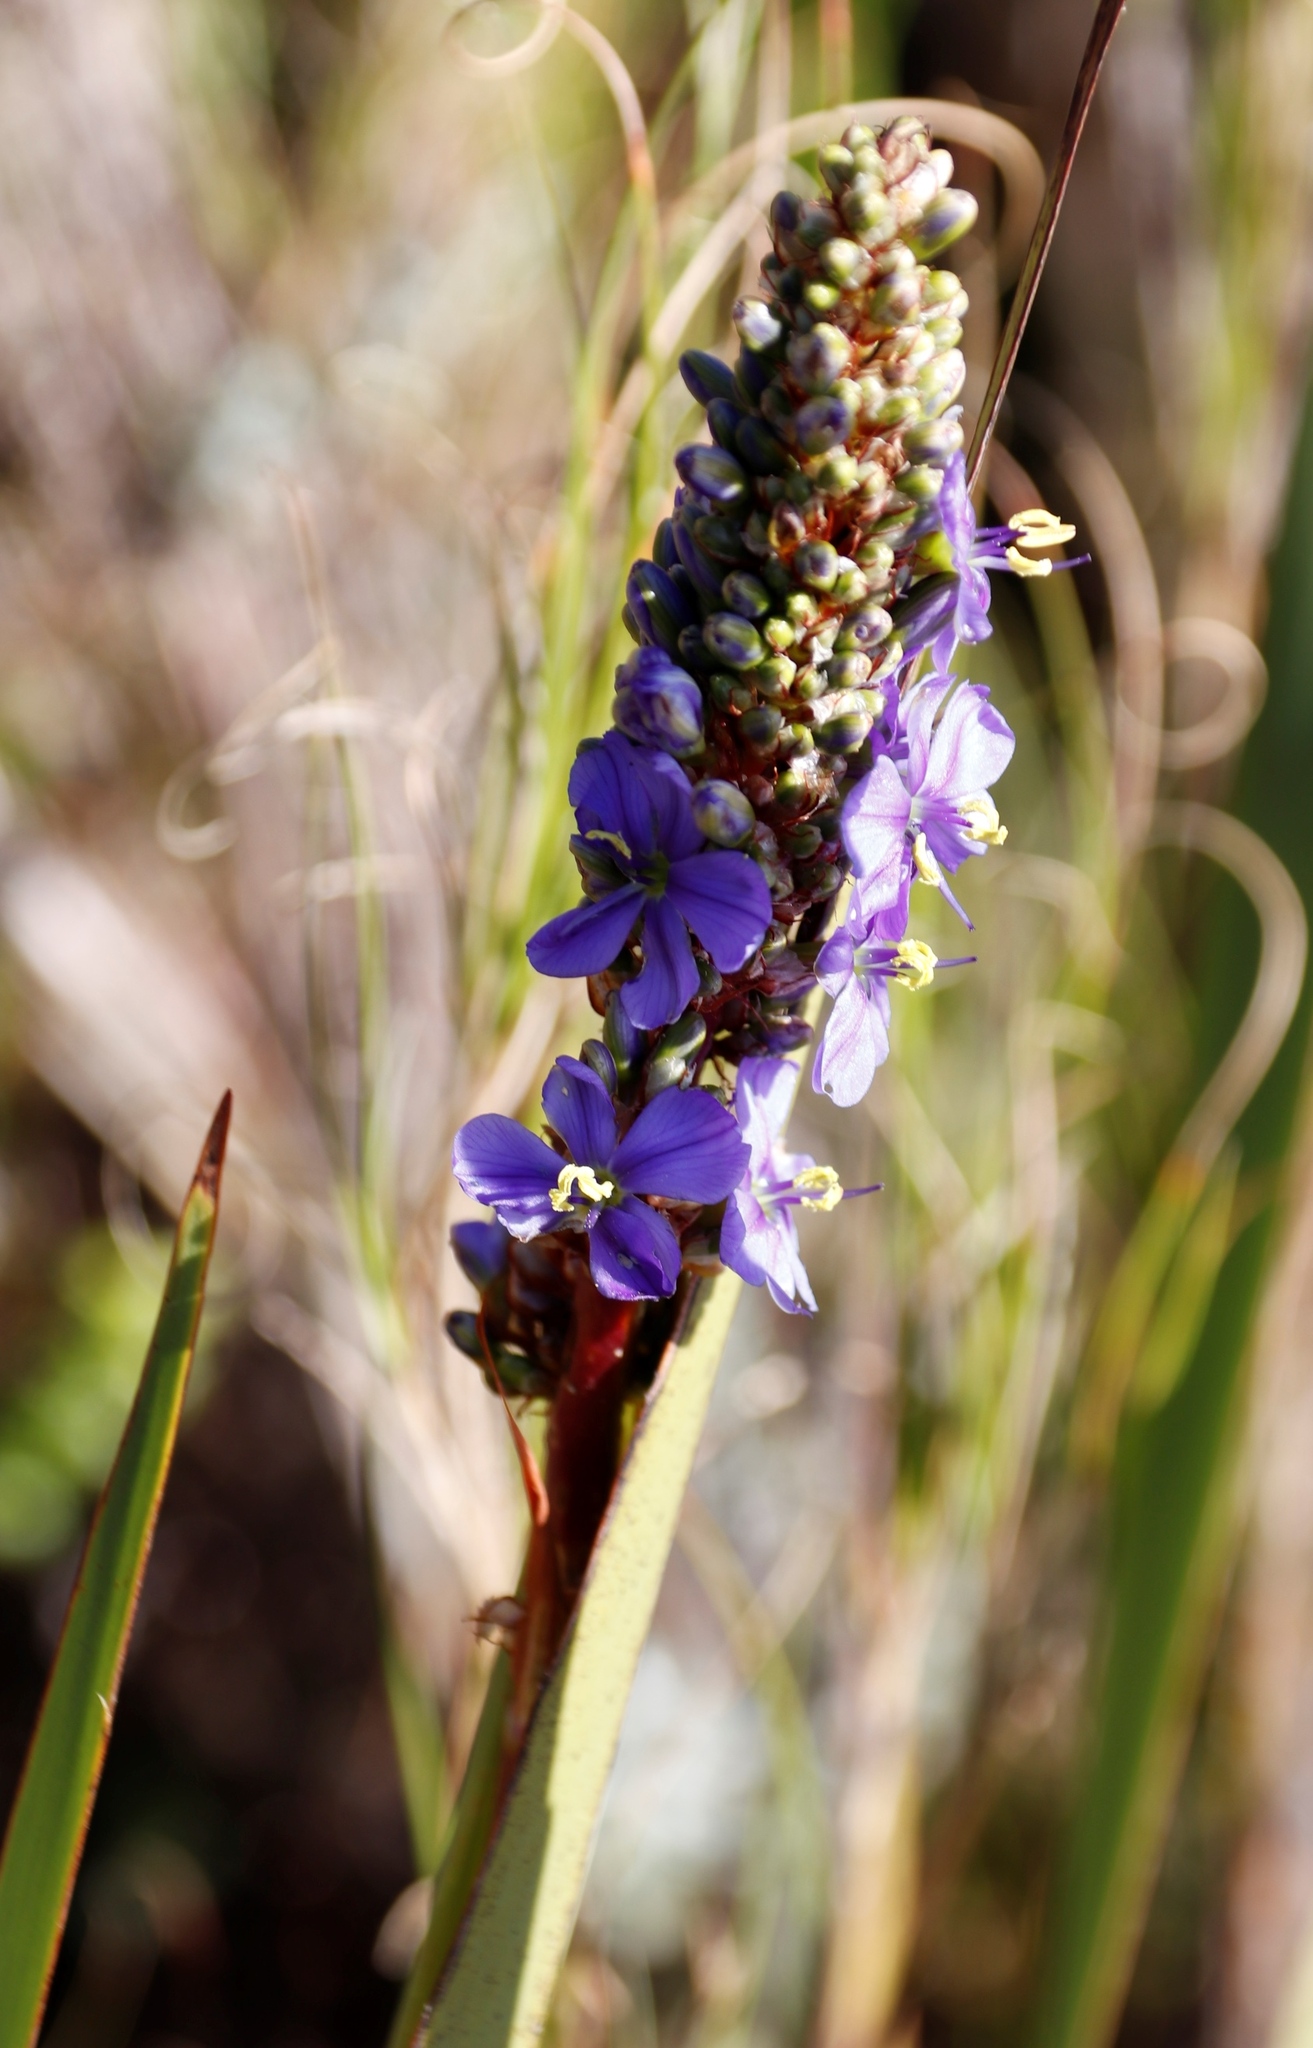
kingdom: Plantae
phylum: Tracheophyta
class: Liliopsida
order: Asparagales
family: Iridaceae
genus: Aristea
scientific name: Aristea capitata
